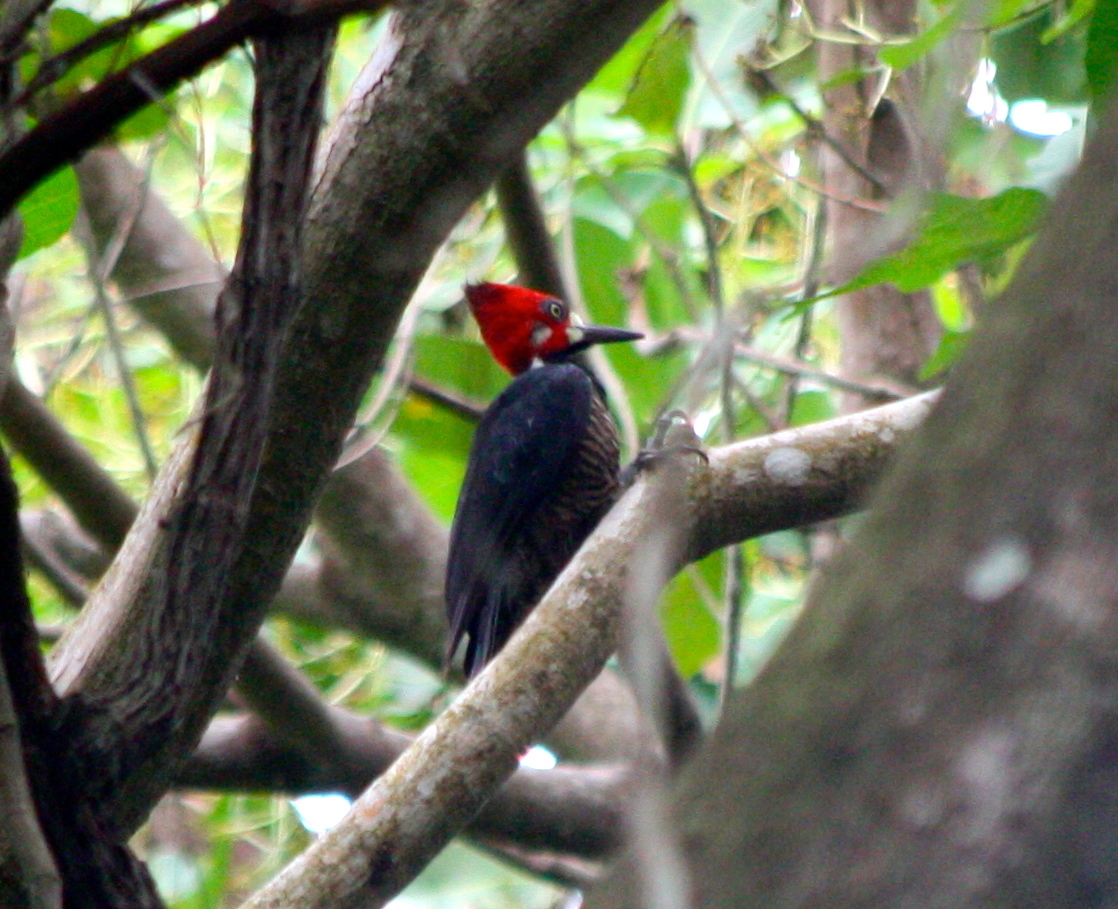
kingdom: Animalia
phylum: Chordata
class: Aves
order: Piciformes
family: Picidae
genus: Campephilus
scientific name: Campephilus melanoleucos
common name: Crimson-crested woodpecker
